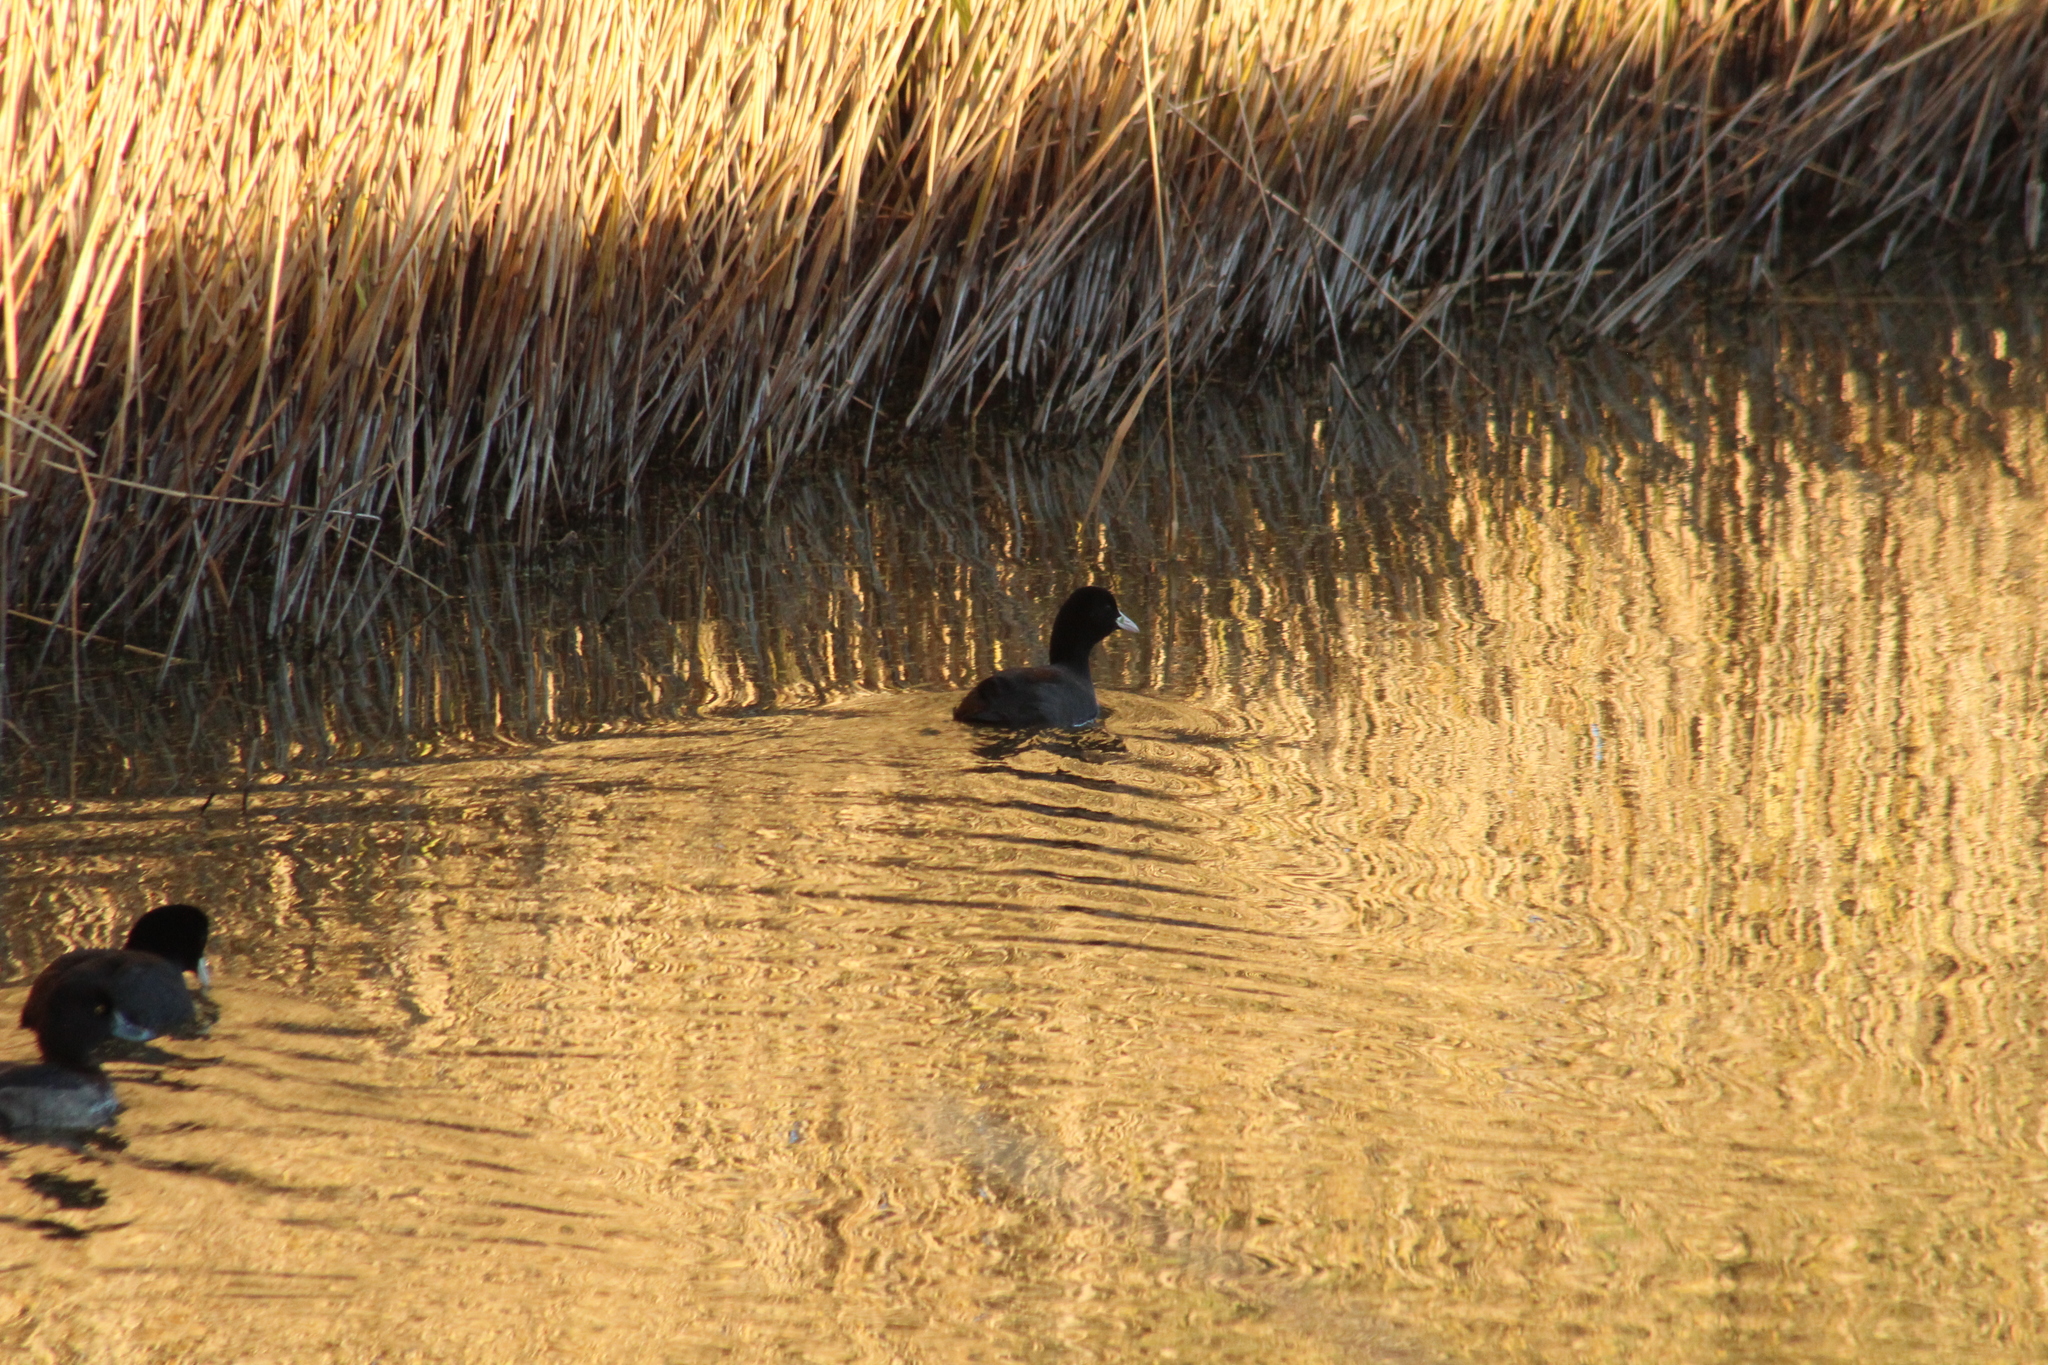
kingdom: Animalia
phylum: Chordata
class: Aves
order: Gruiformes
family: Rallidae
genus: Fulica
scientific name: Fulica atra
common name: Eurasian coot
